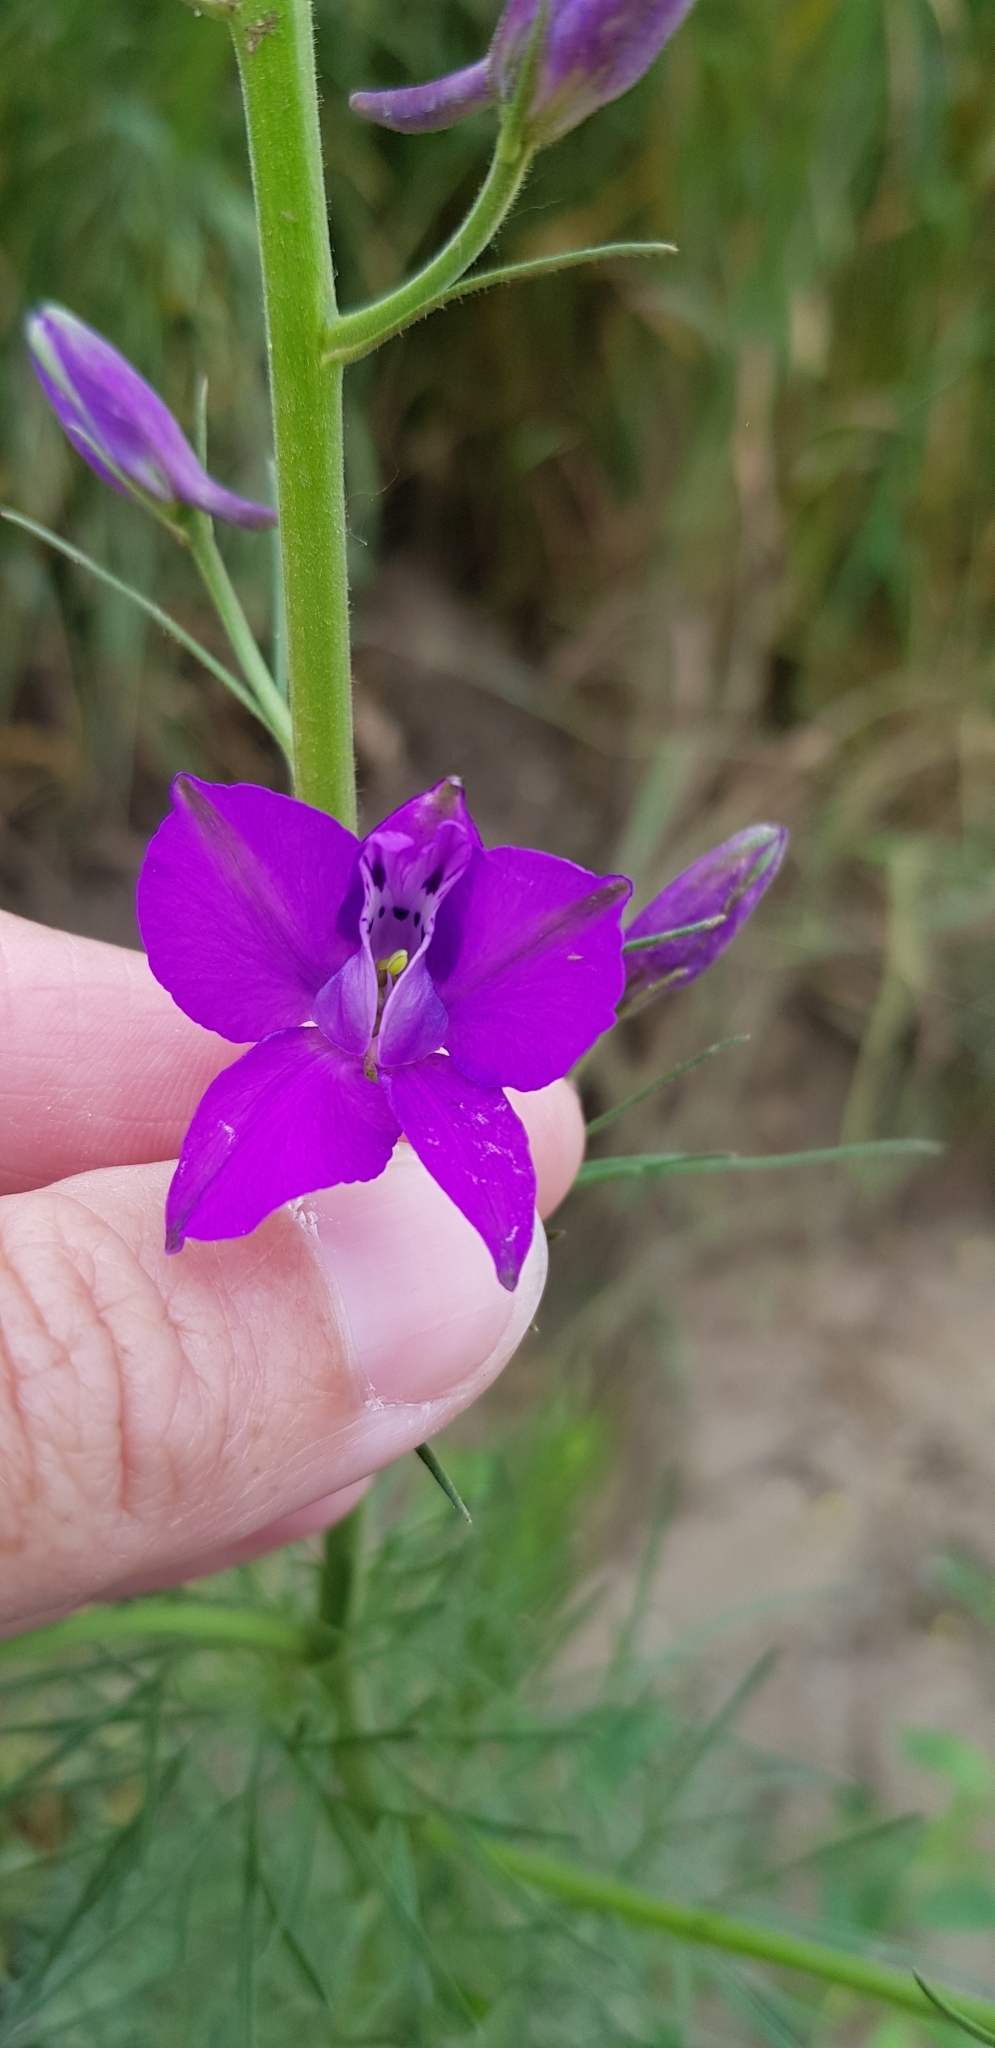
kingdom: Plantae
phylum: Tracheophyta
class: Magnoliopsida
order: Ranunculales
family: Ranunculaceae
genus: Delphinium
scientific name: Delphinium ajacis
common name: Doubtful knight's-spur
